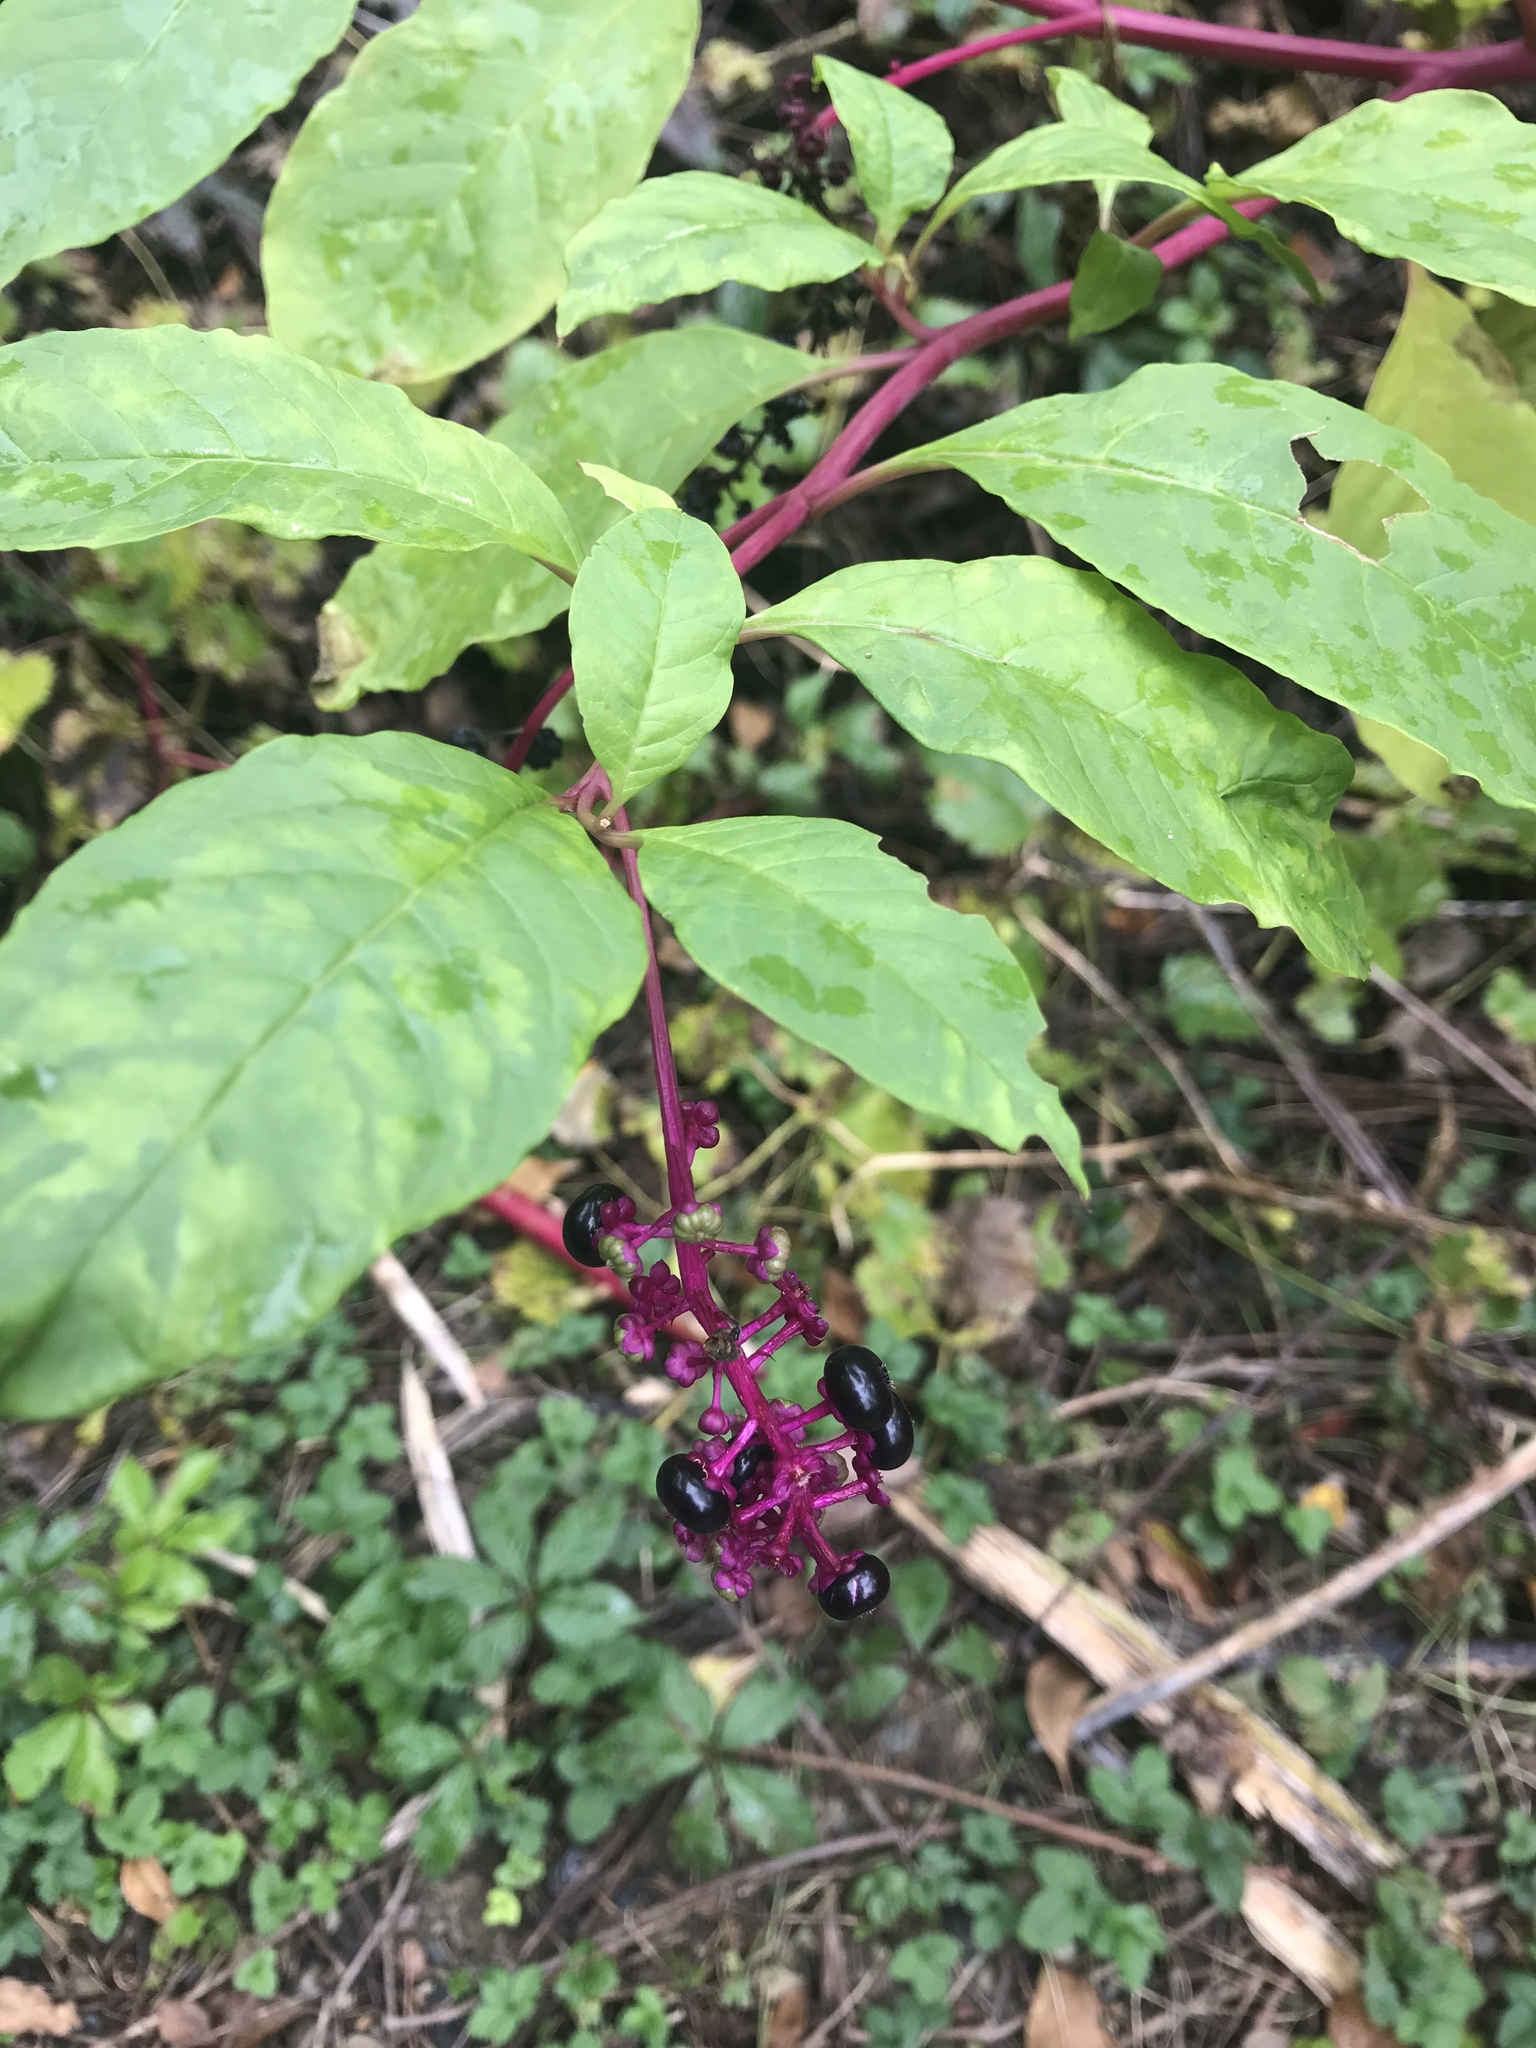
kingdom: Plantae
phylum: Tracheophyta
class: Magnoliopsida
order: Caryophyllales
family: Phytolaccaceae
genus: Phytolacca
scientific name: Phytolacca americana
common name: American pokeweed
